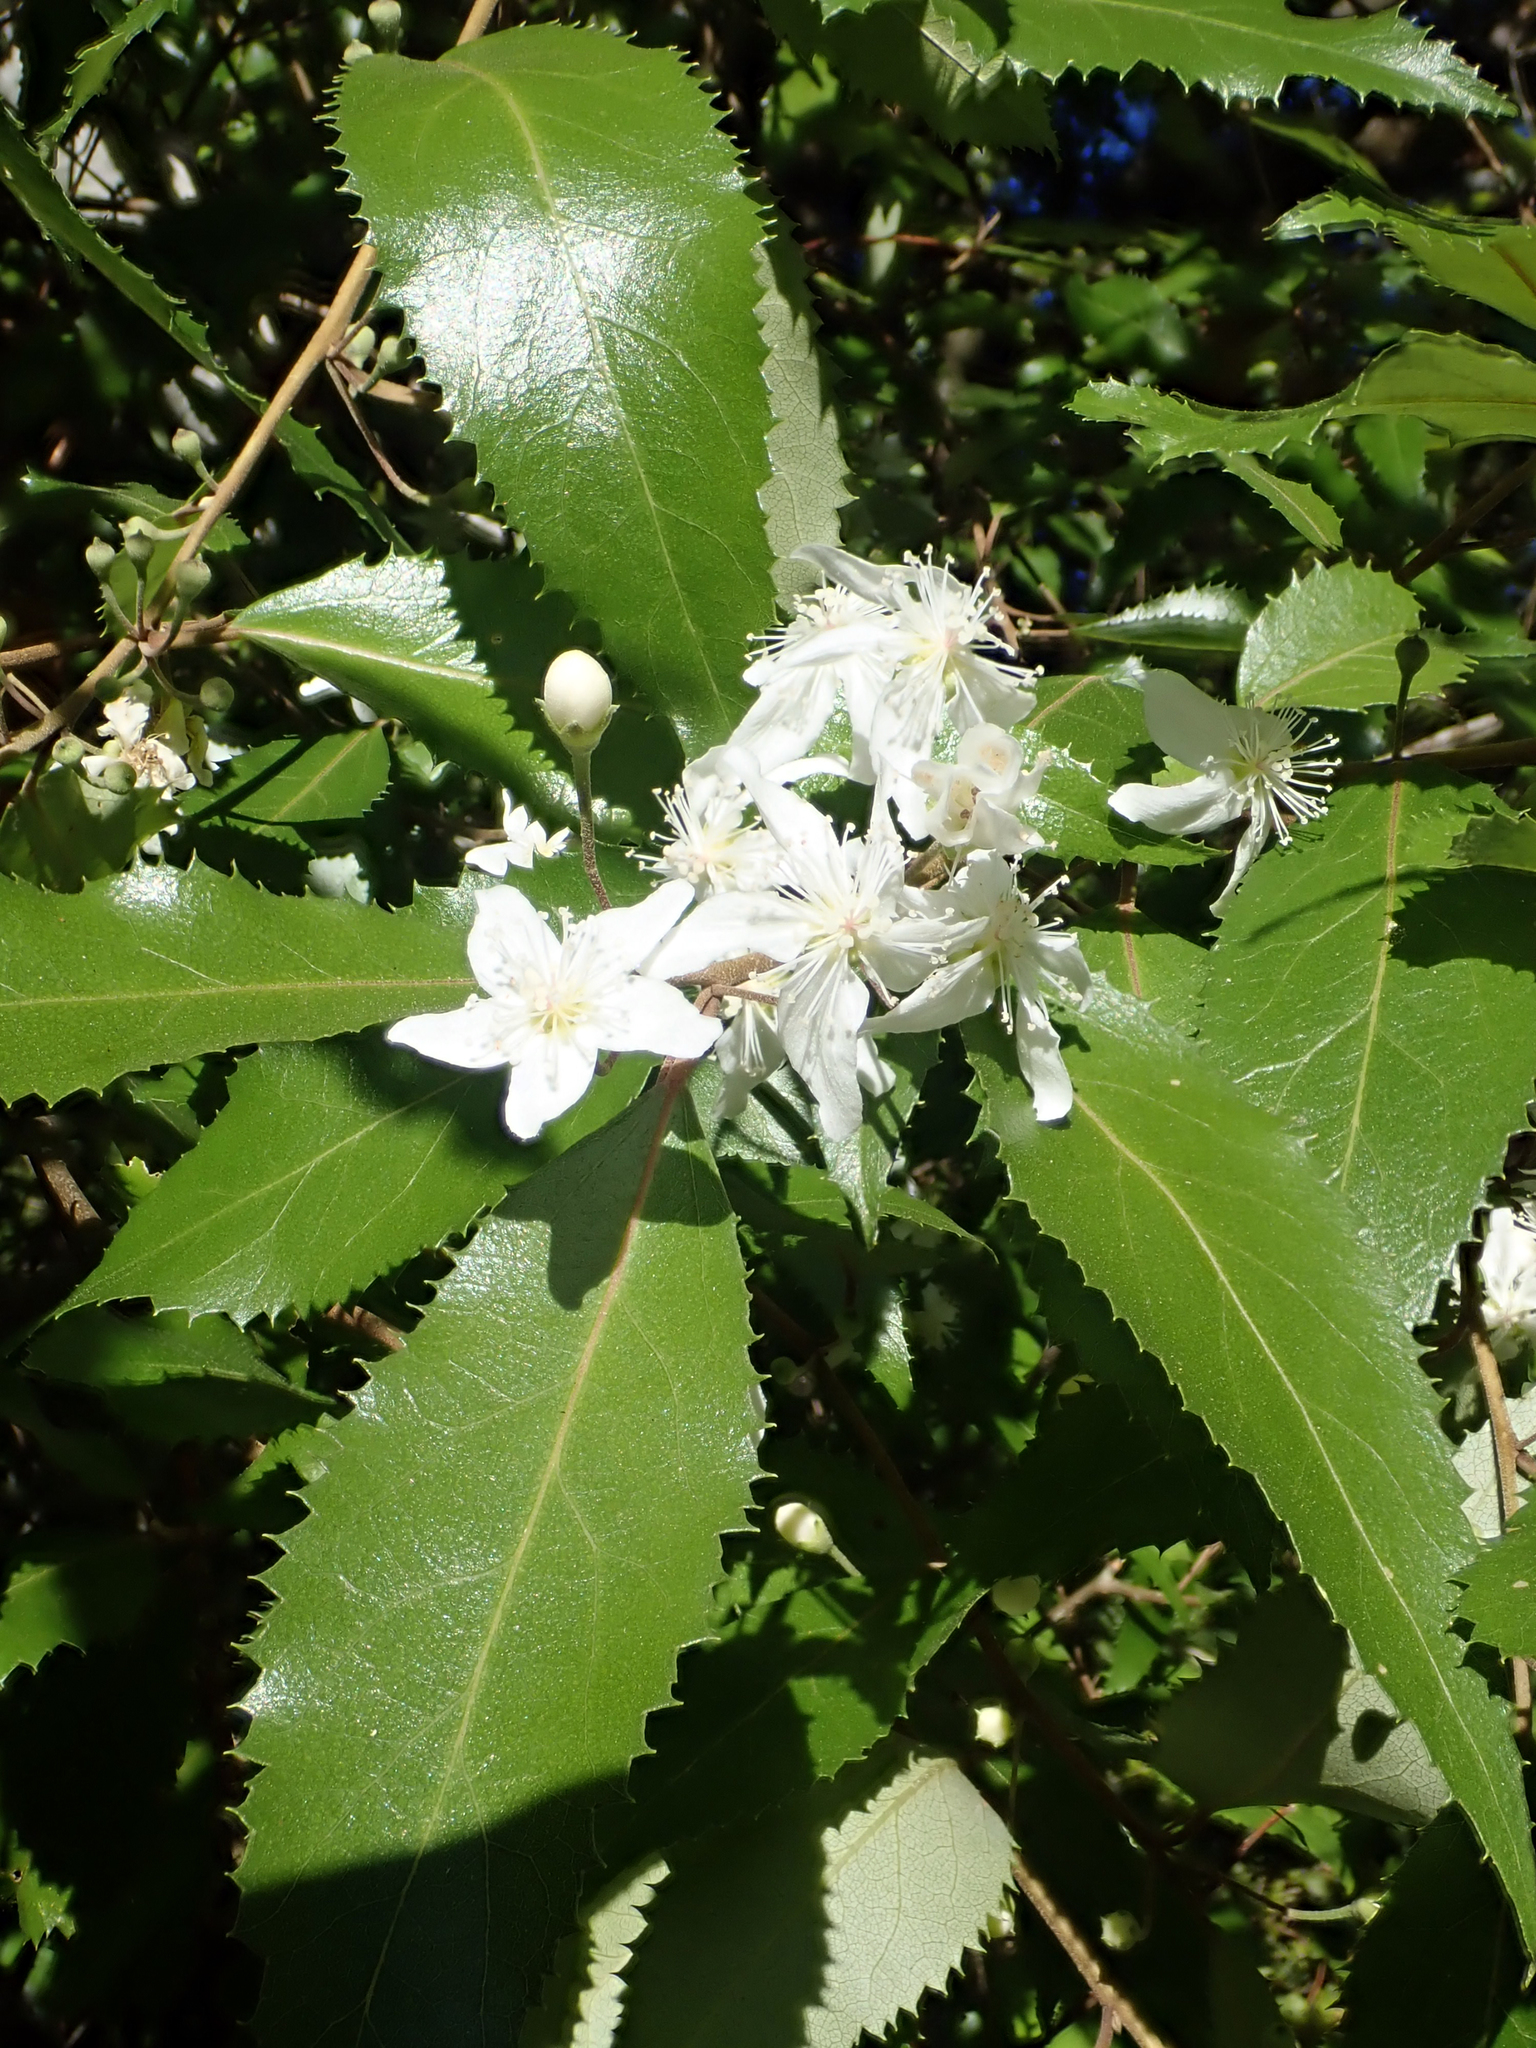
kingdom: Plantae
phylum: Tracheophyta
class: Magnoliopsida
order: Malvales
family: Malvaceae
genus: Hoheria
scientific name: Hoheria sexstylosa
